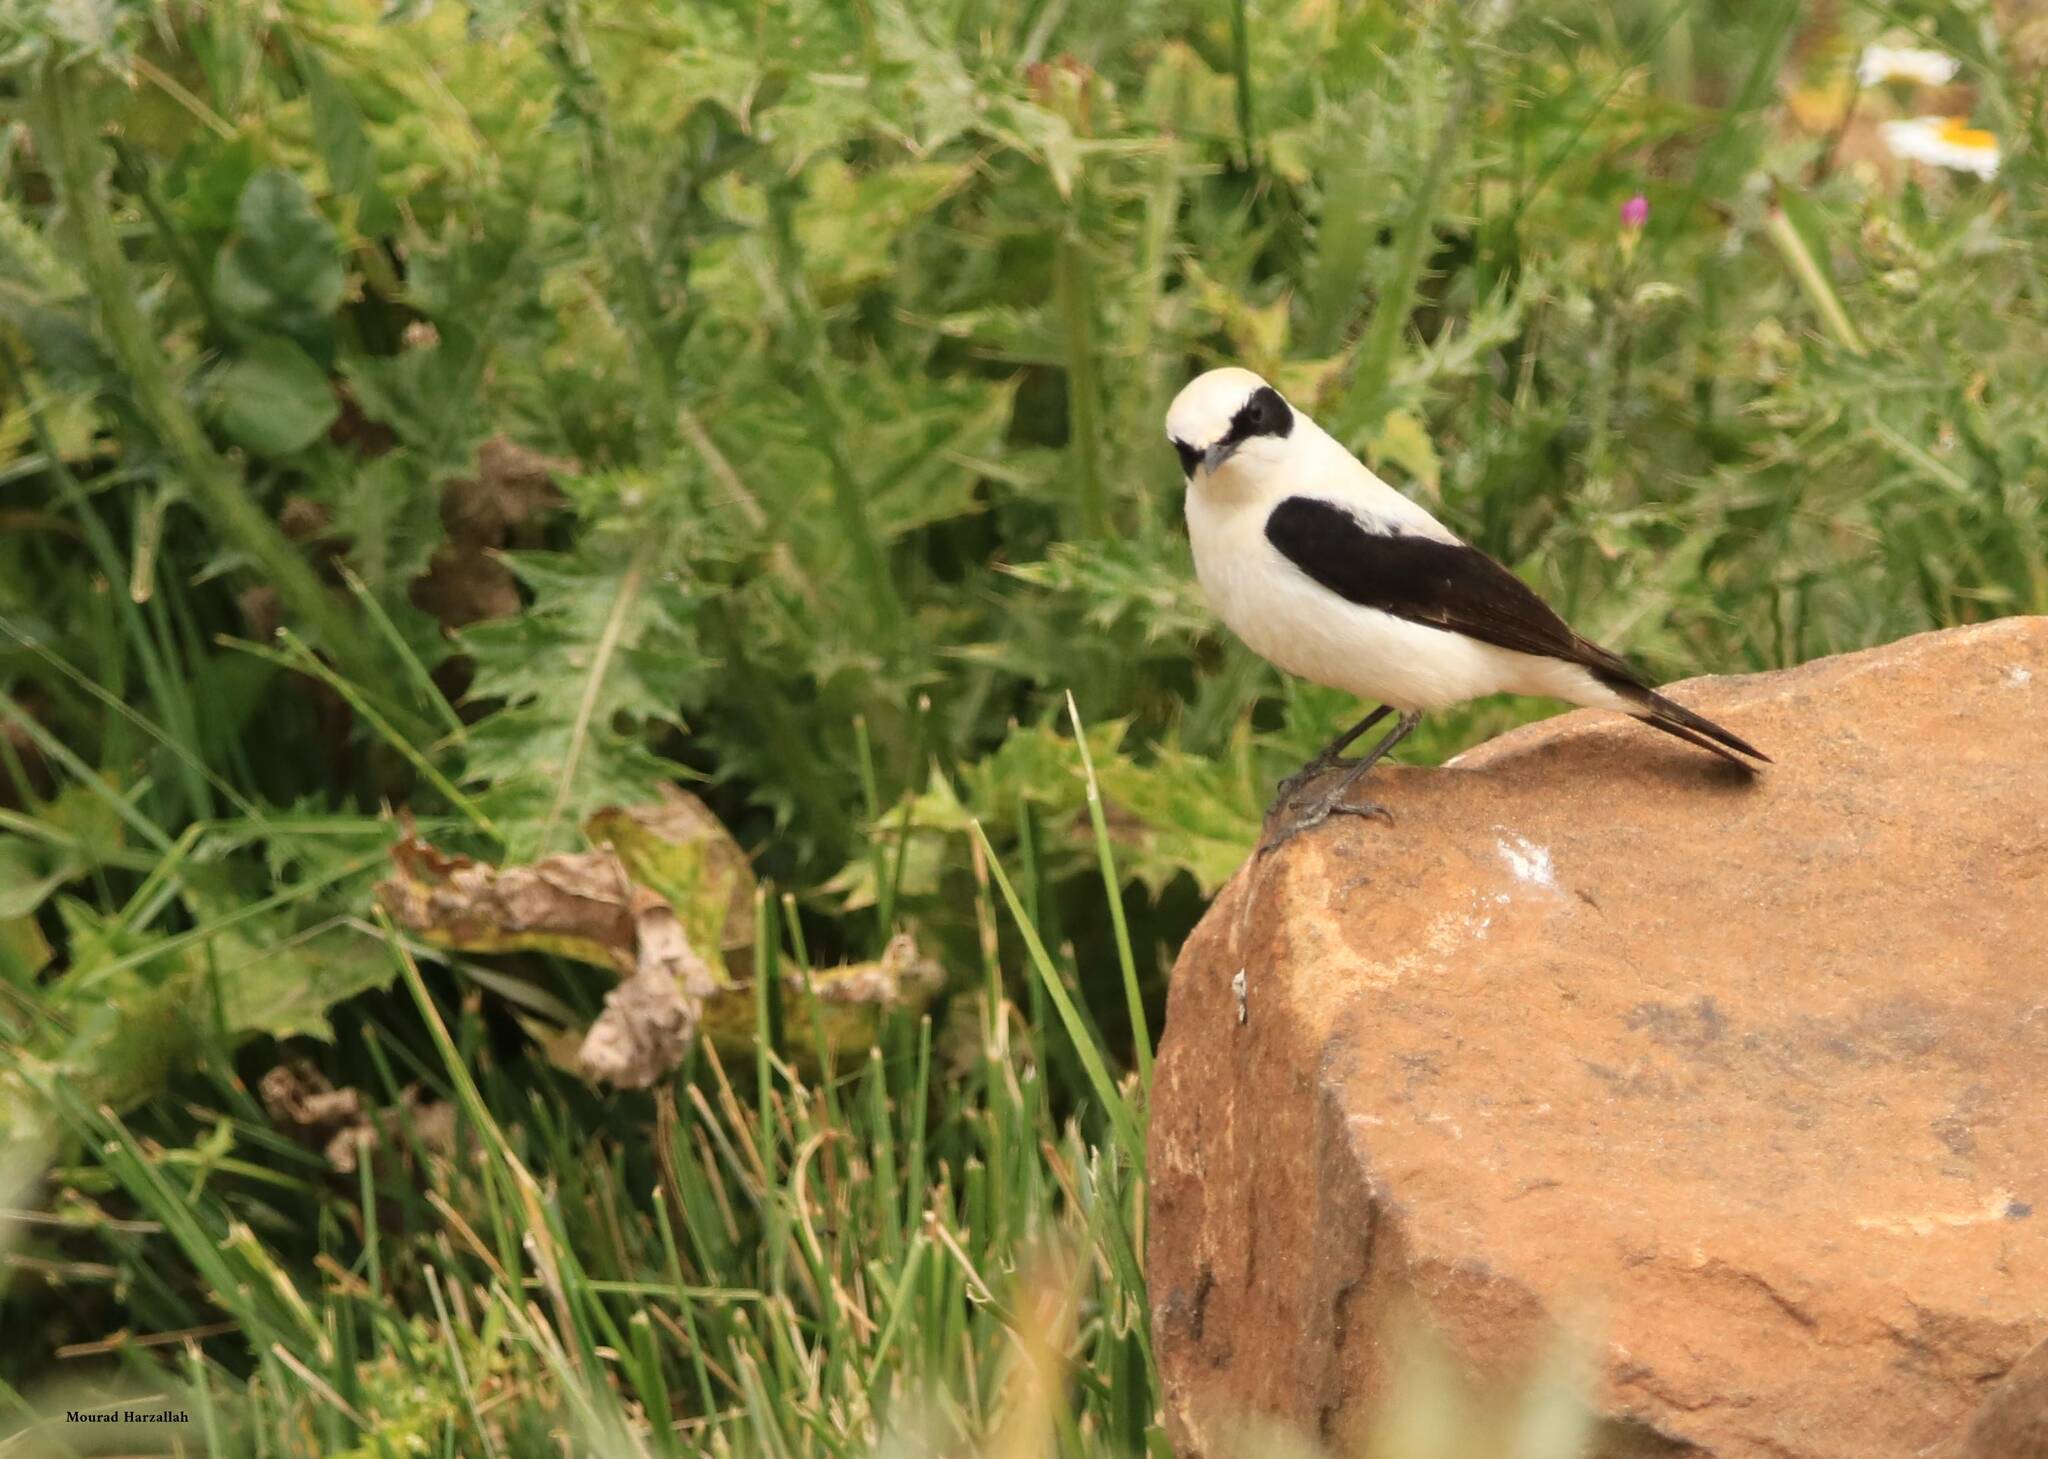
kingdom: Animalia
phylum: Chordata
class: Aves
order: Passeriformes
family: Muscicapidae
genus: Oenanthe
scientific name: Oenanthe hispanica
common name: Black-eared wheatear
